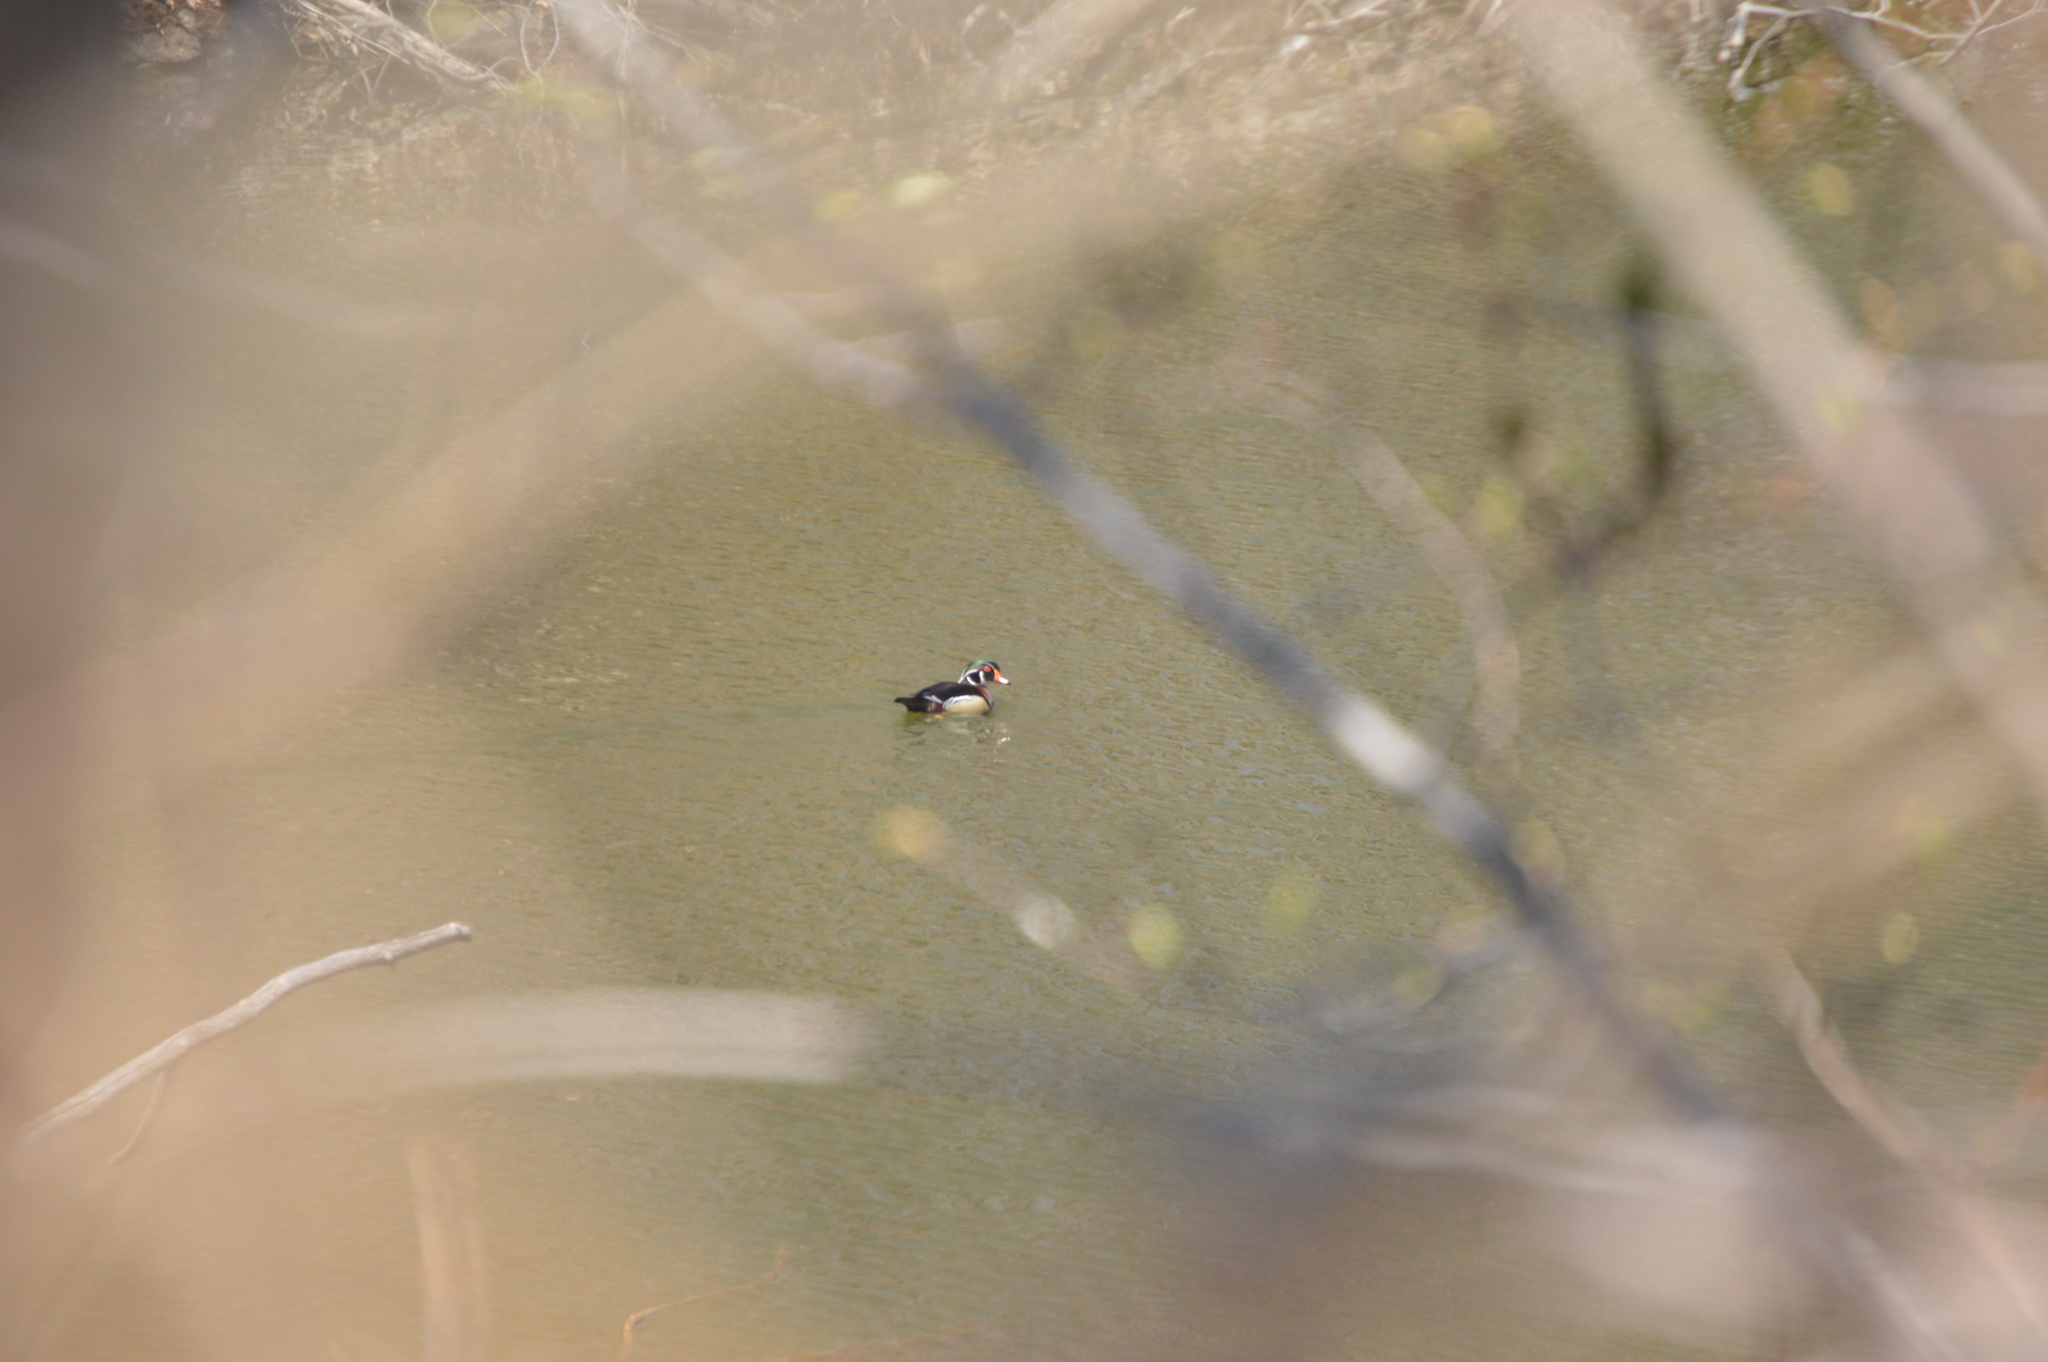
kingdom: Animalia
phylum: Chordata
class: Aves
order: Anseriformes
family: Anatidae
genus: Aix
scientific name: Aix sponsa
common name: Wood duck
